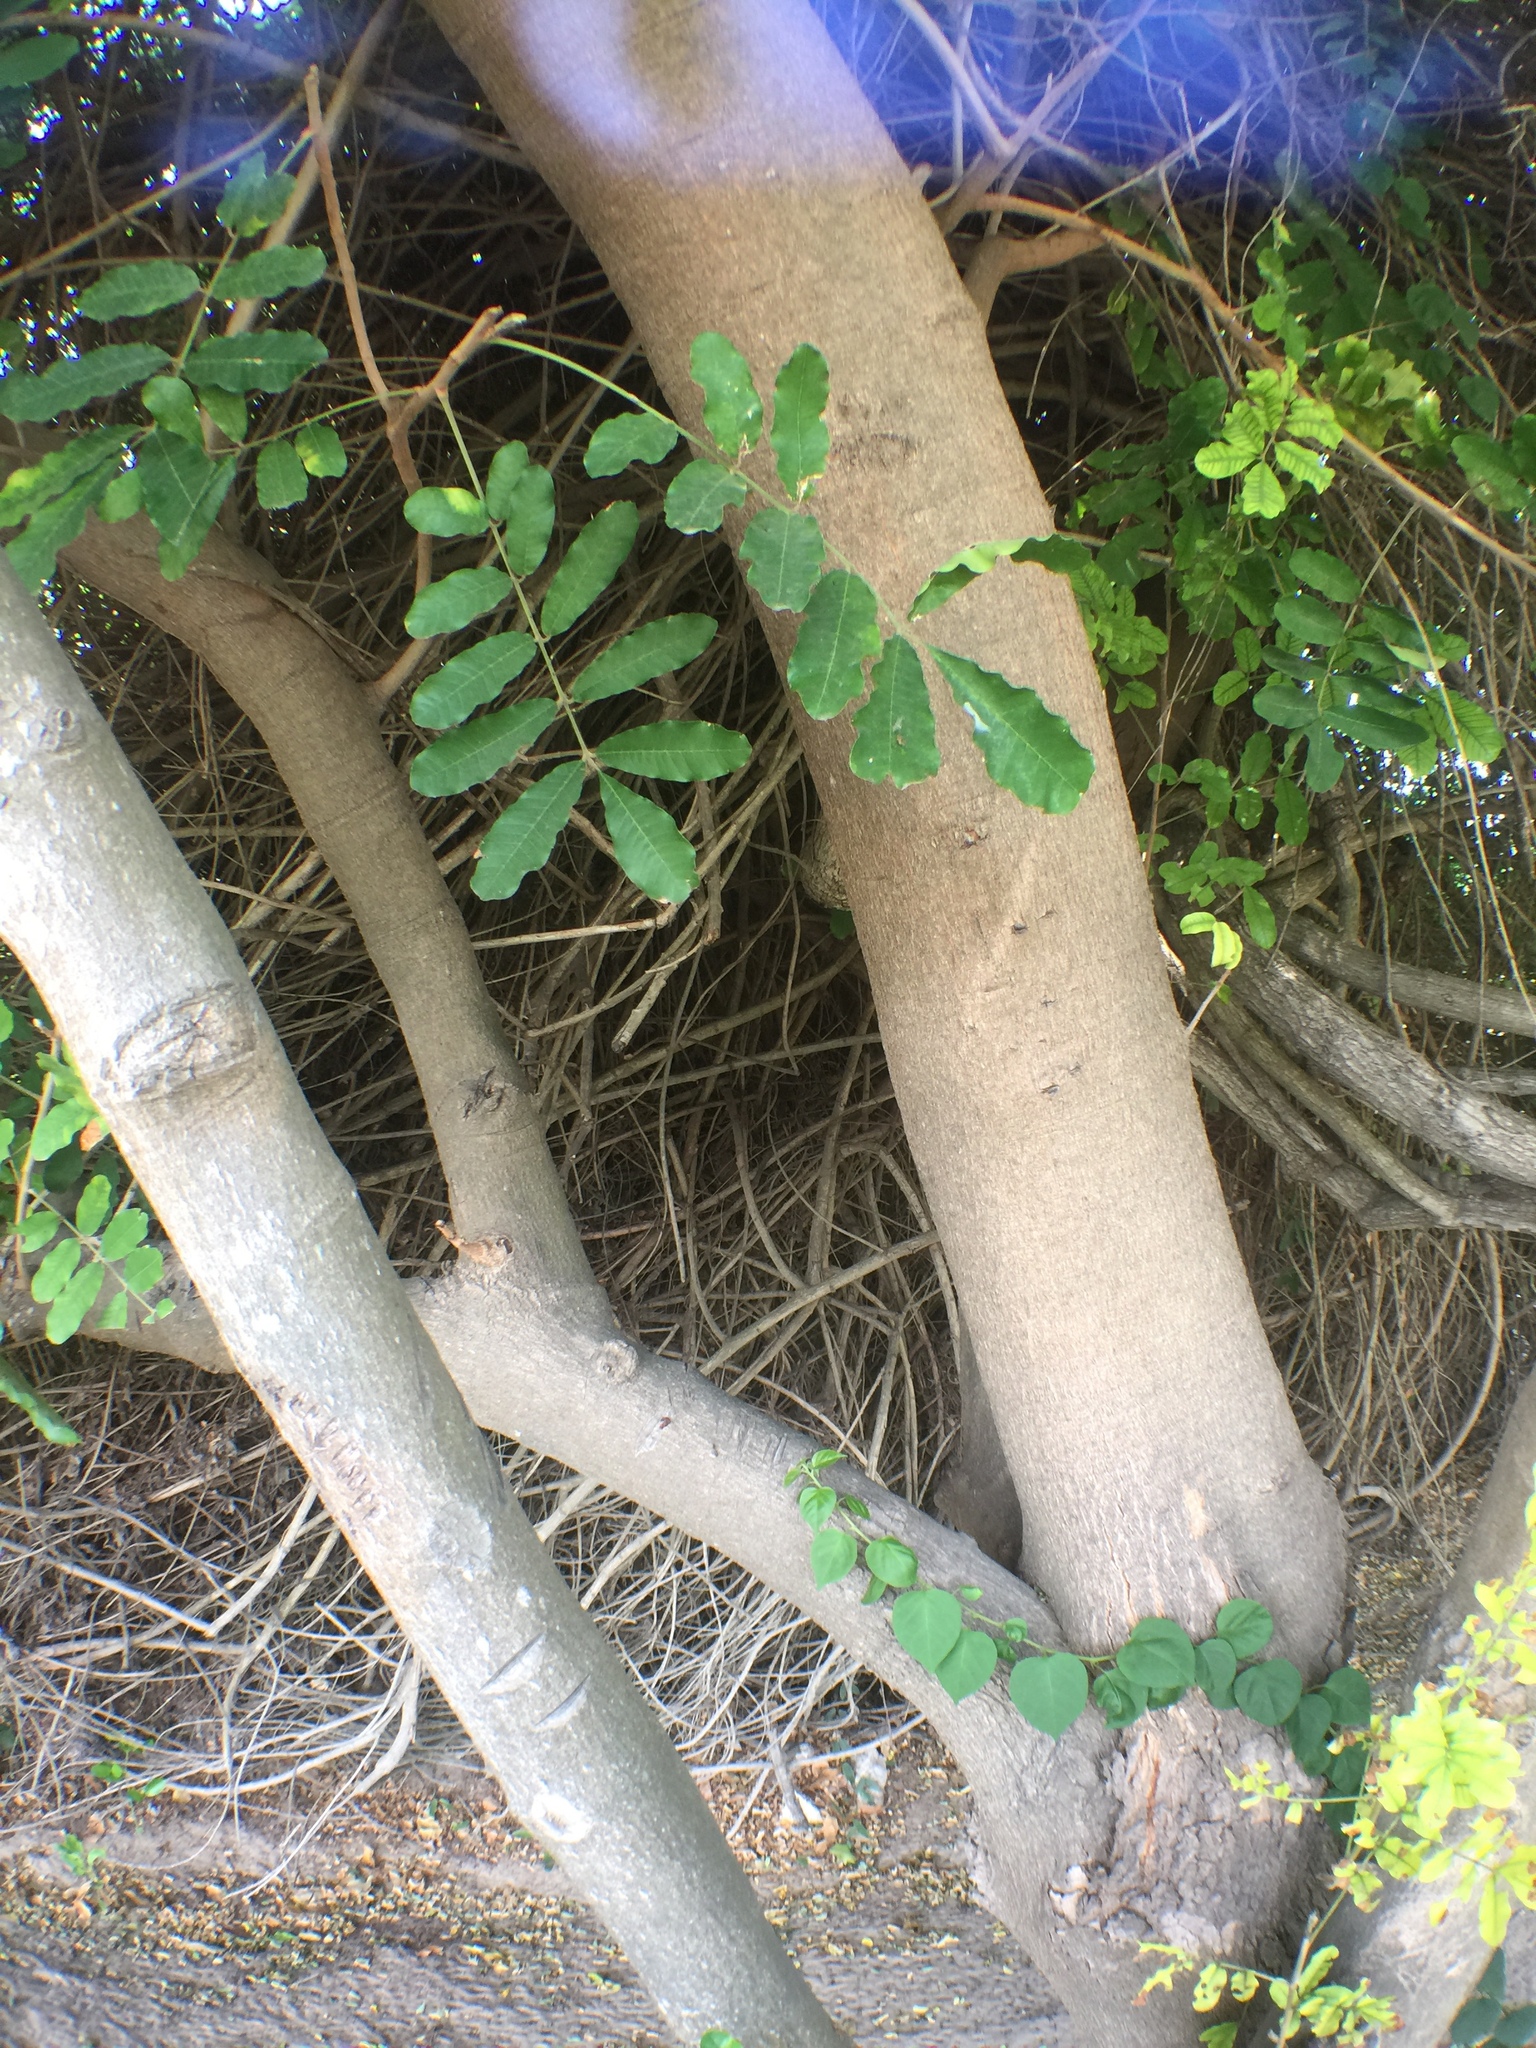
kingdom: Plantae
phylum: Tracheophyta
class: Magnoliopsida
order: Sapindales
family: Meliaceae
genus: Trichilia
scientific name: Trichilia emetica
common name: Christmas-bells
